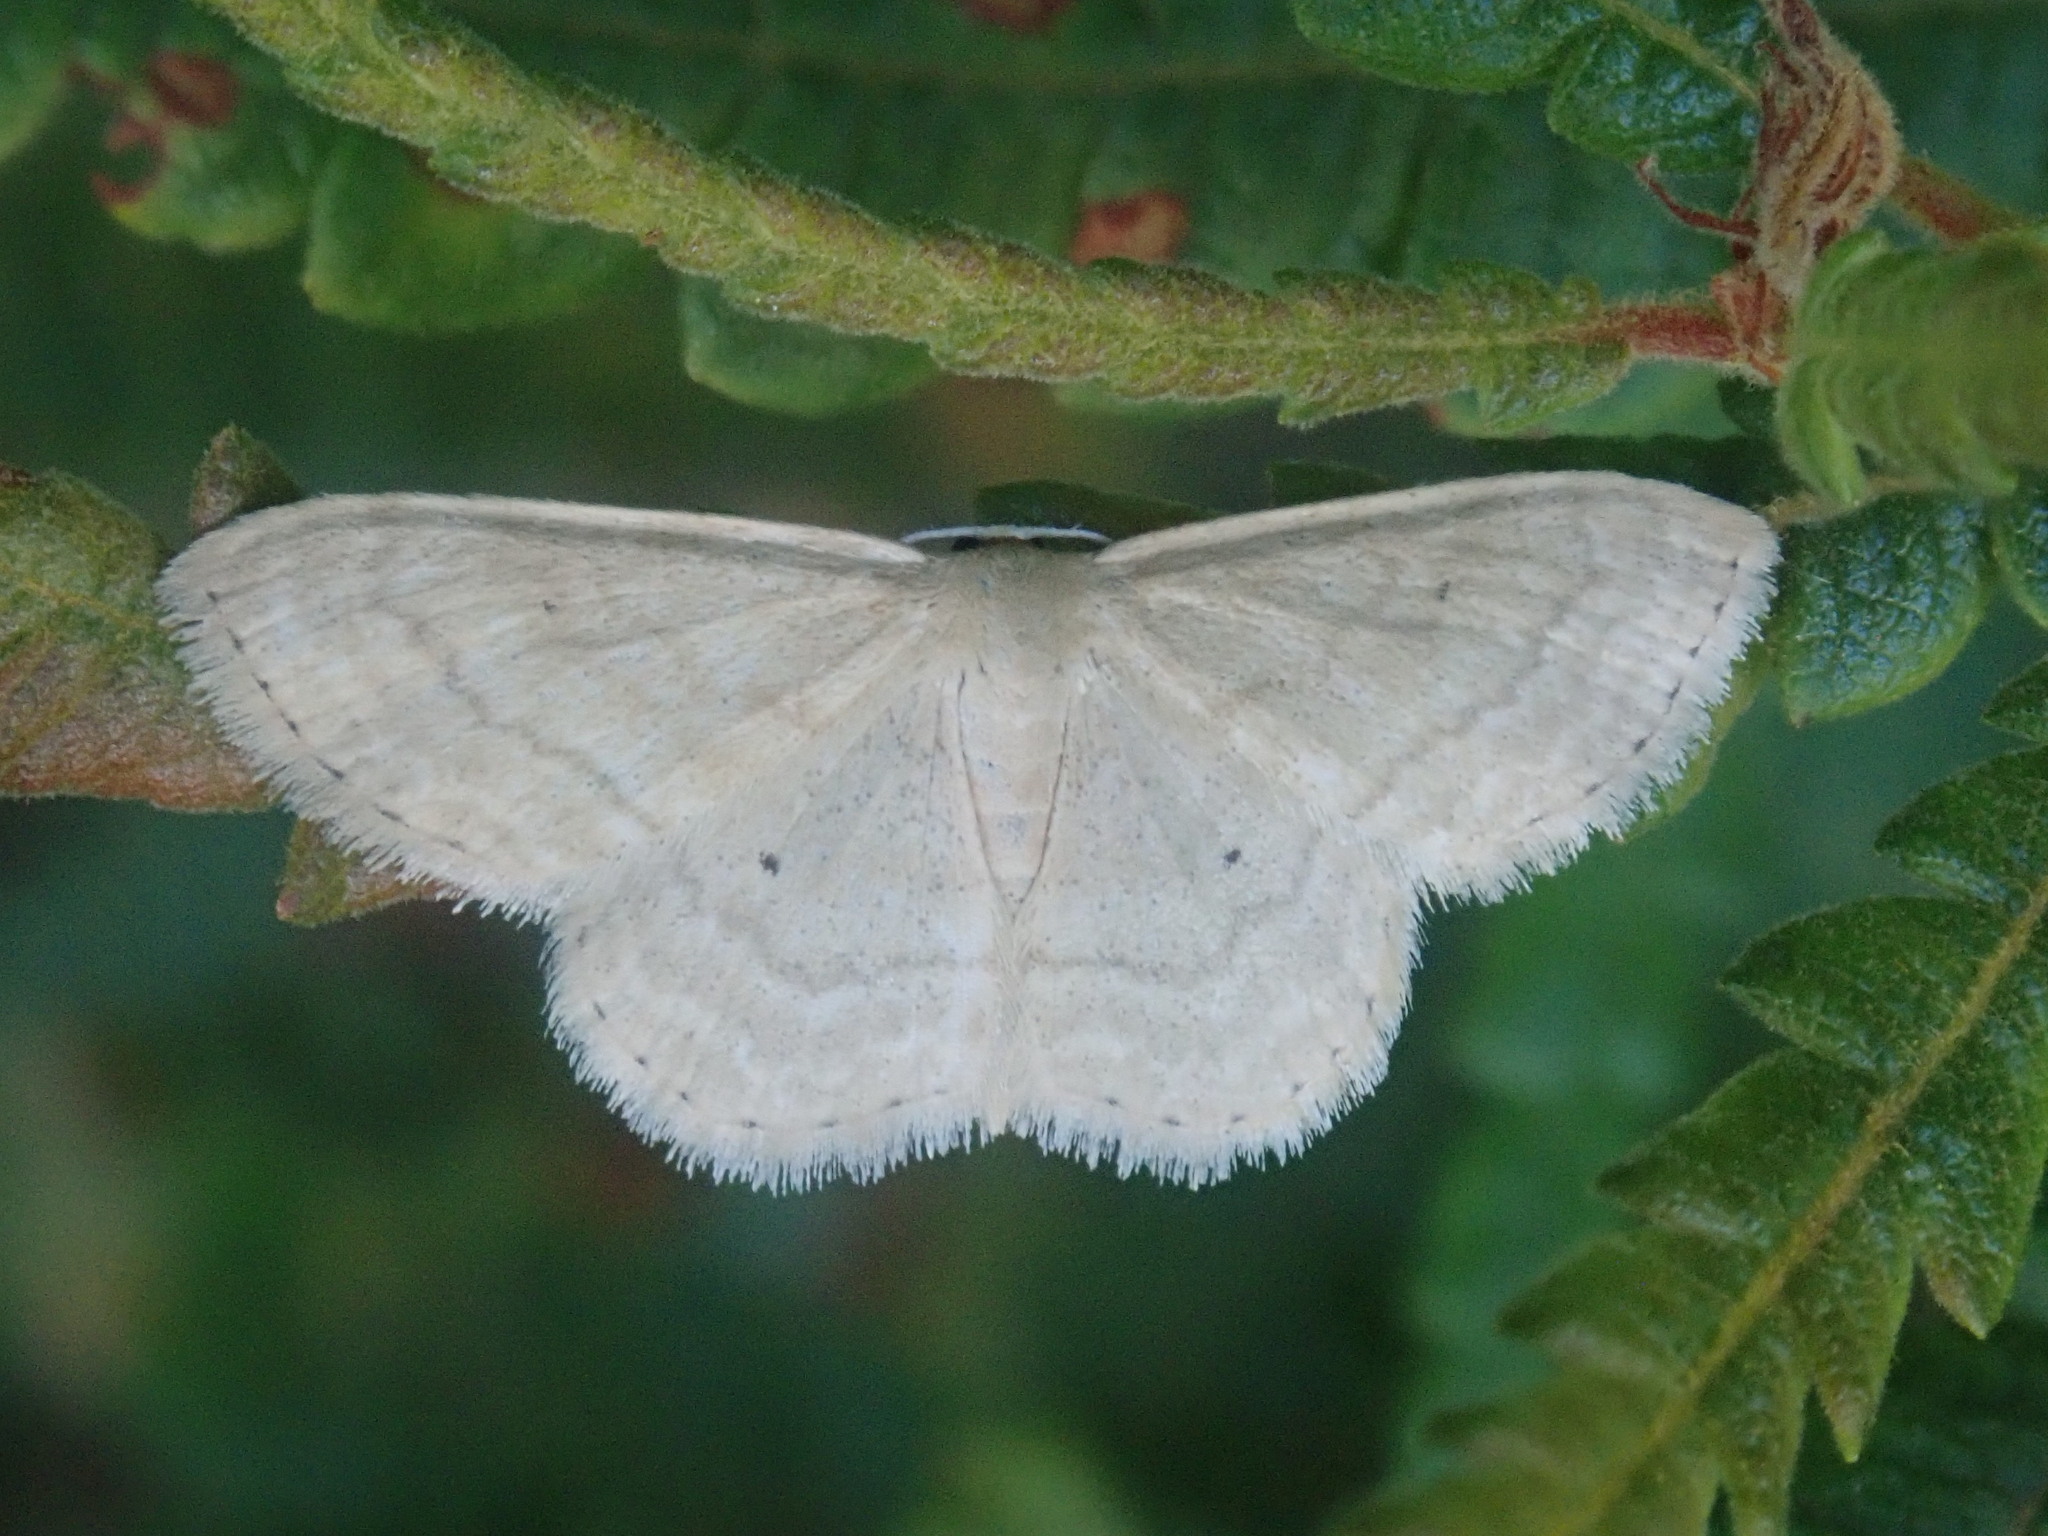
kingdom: Animalia
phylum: Arthropoda
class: Insecta
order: Lepidoptera
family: Geometridae
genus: Scopula
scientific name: Scopula inductata
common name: Soft-lined wave
